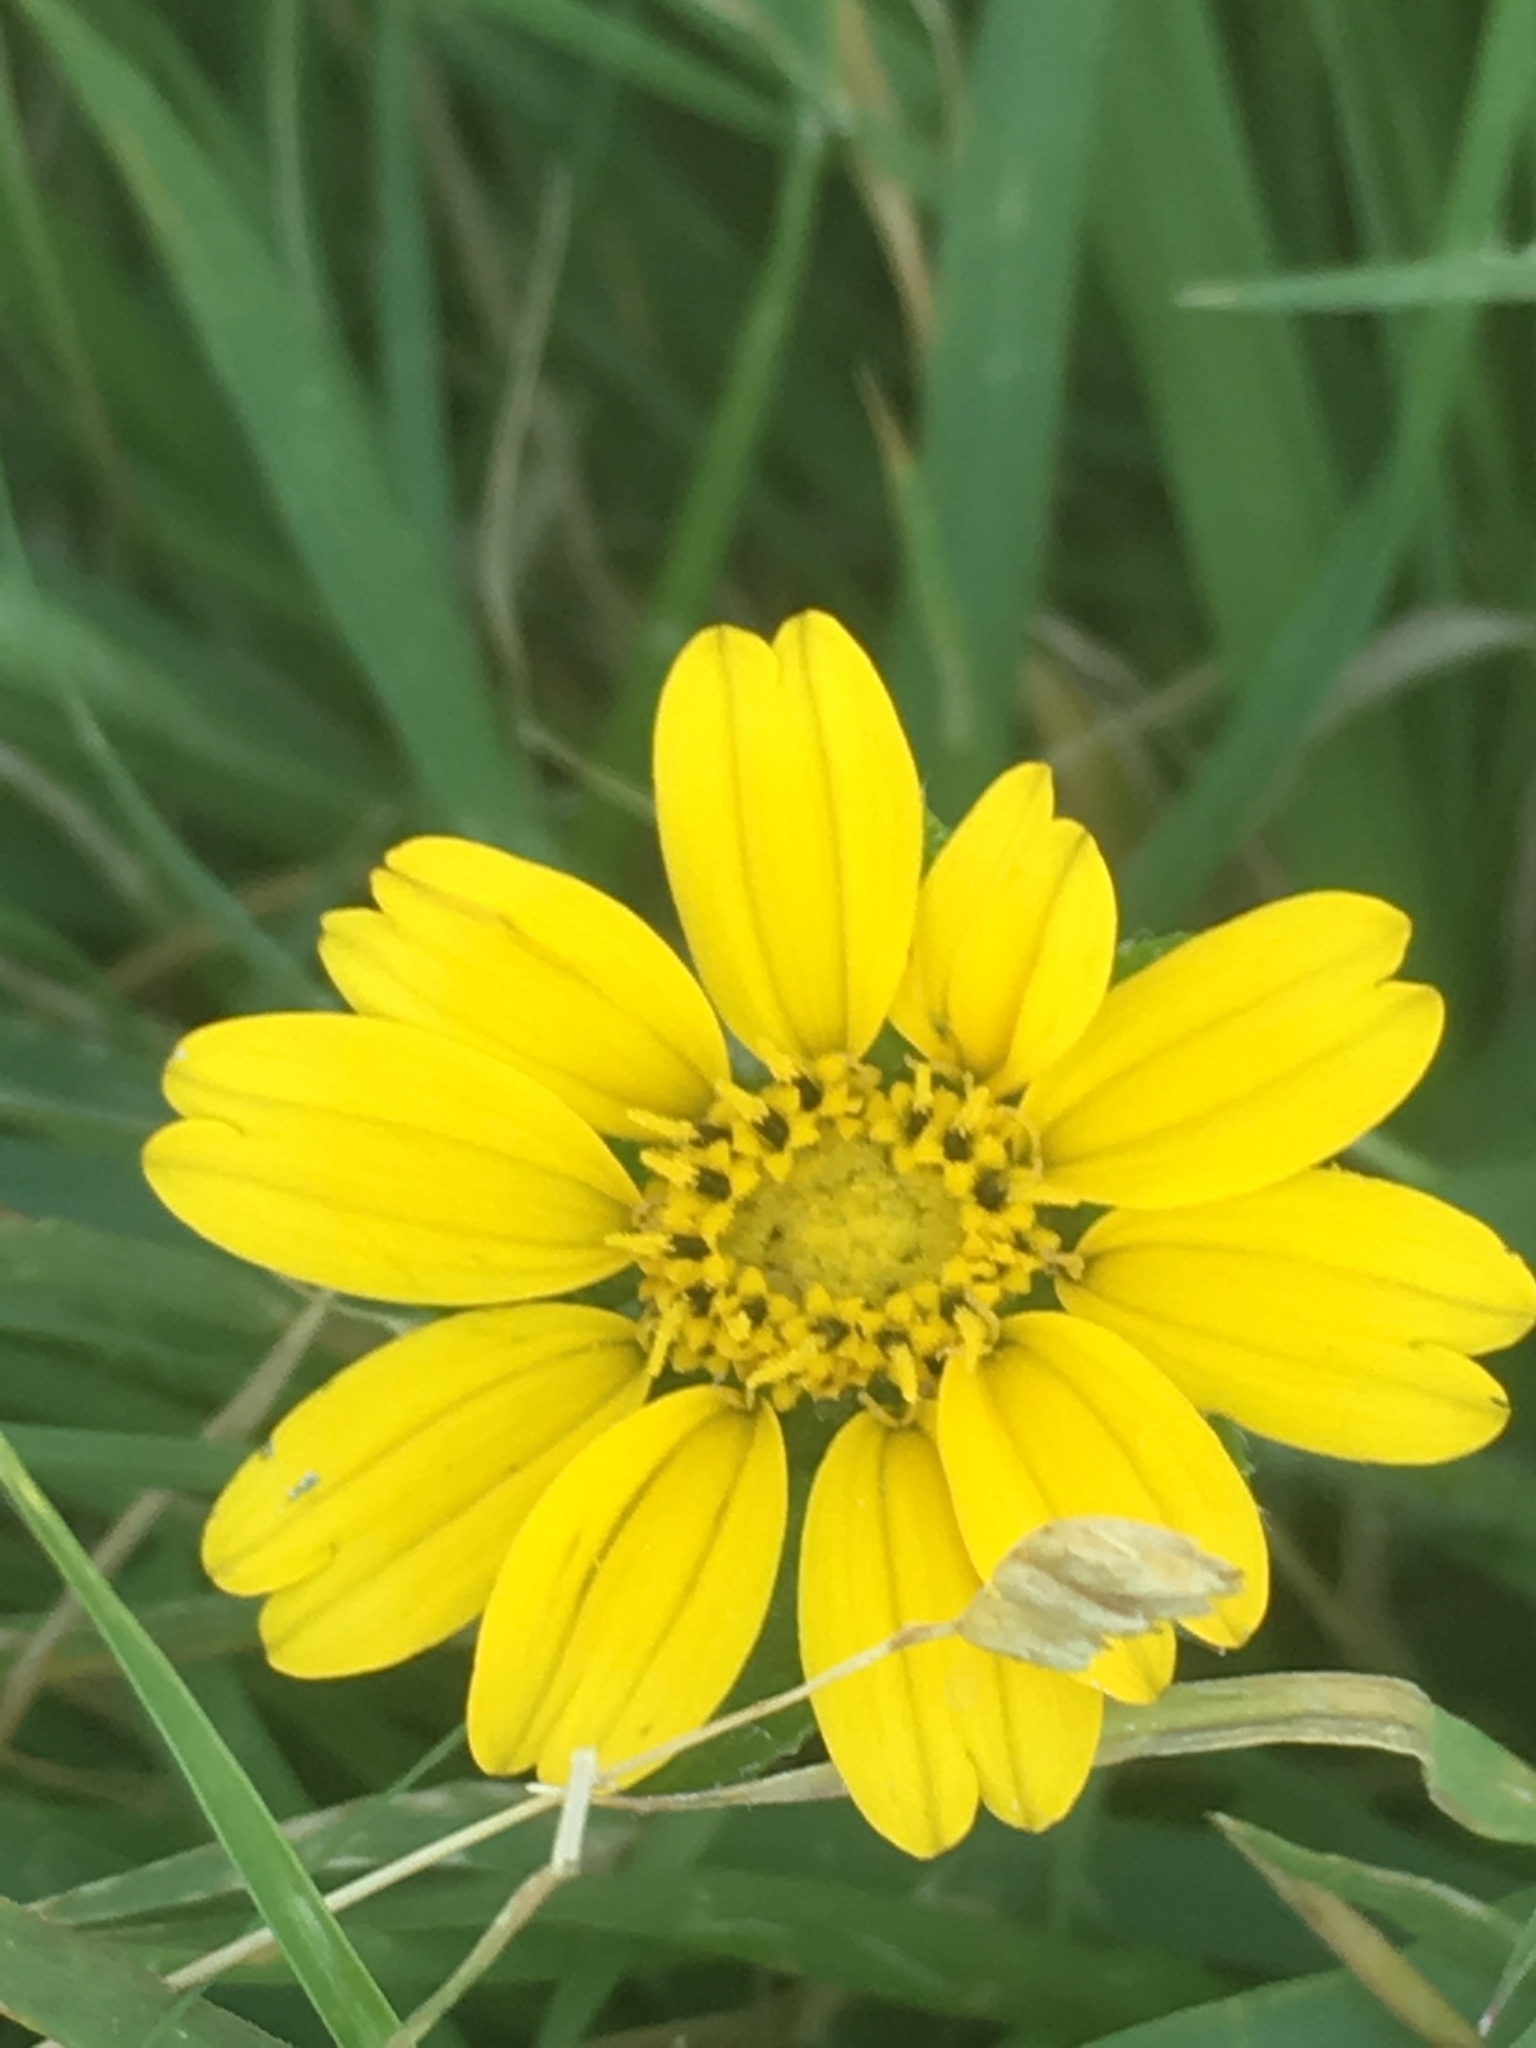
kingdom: Plantae
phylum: Tracheophyta
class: Magnoliopsida
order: Asterales
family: Asteraceae
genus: Dugesia
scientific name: Dugesia mexicana
